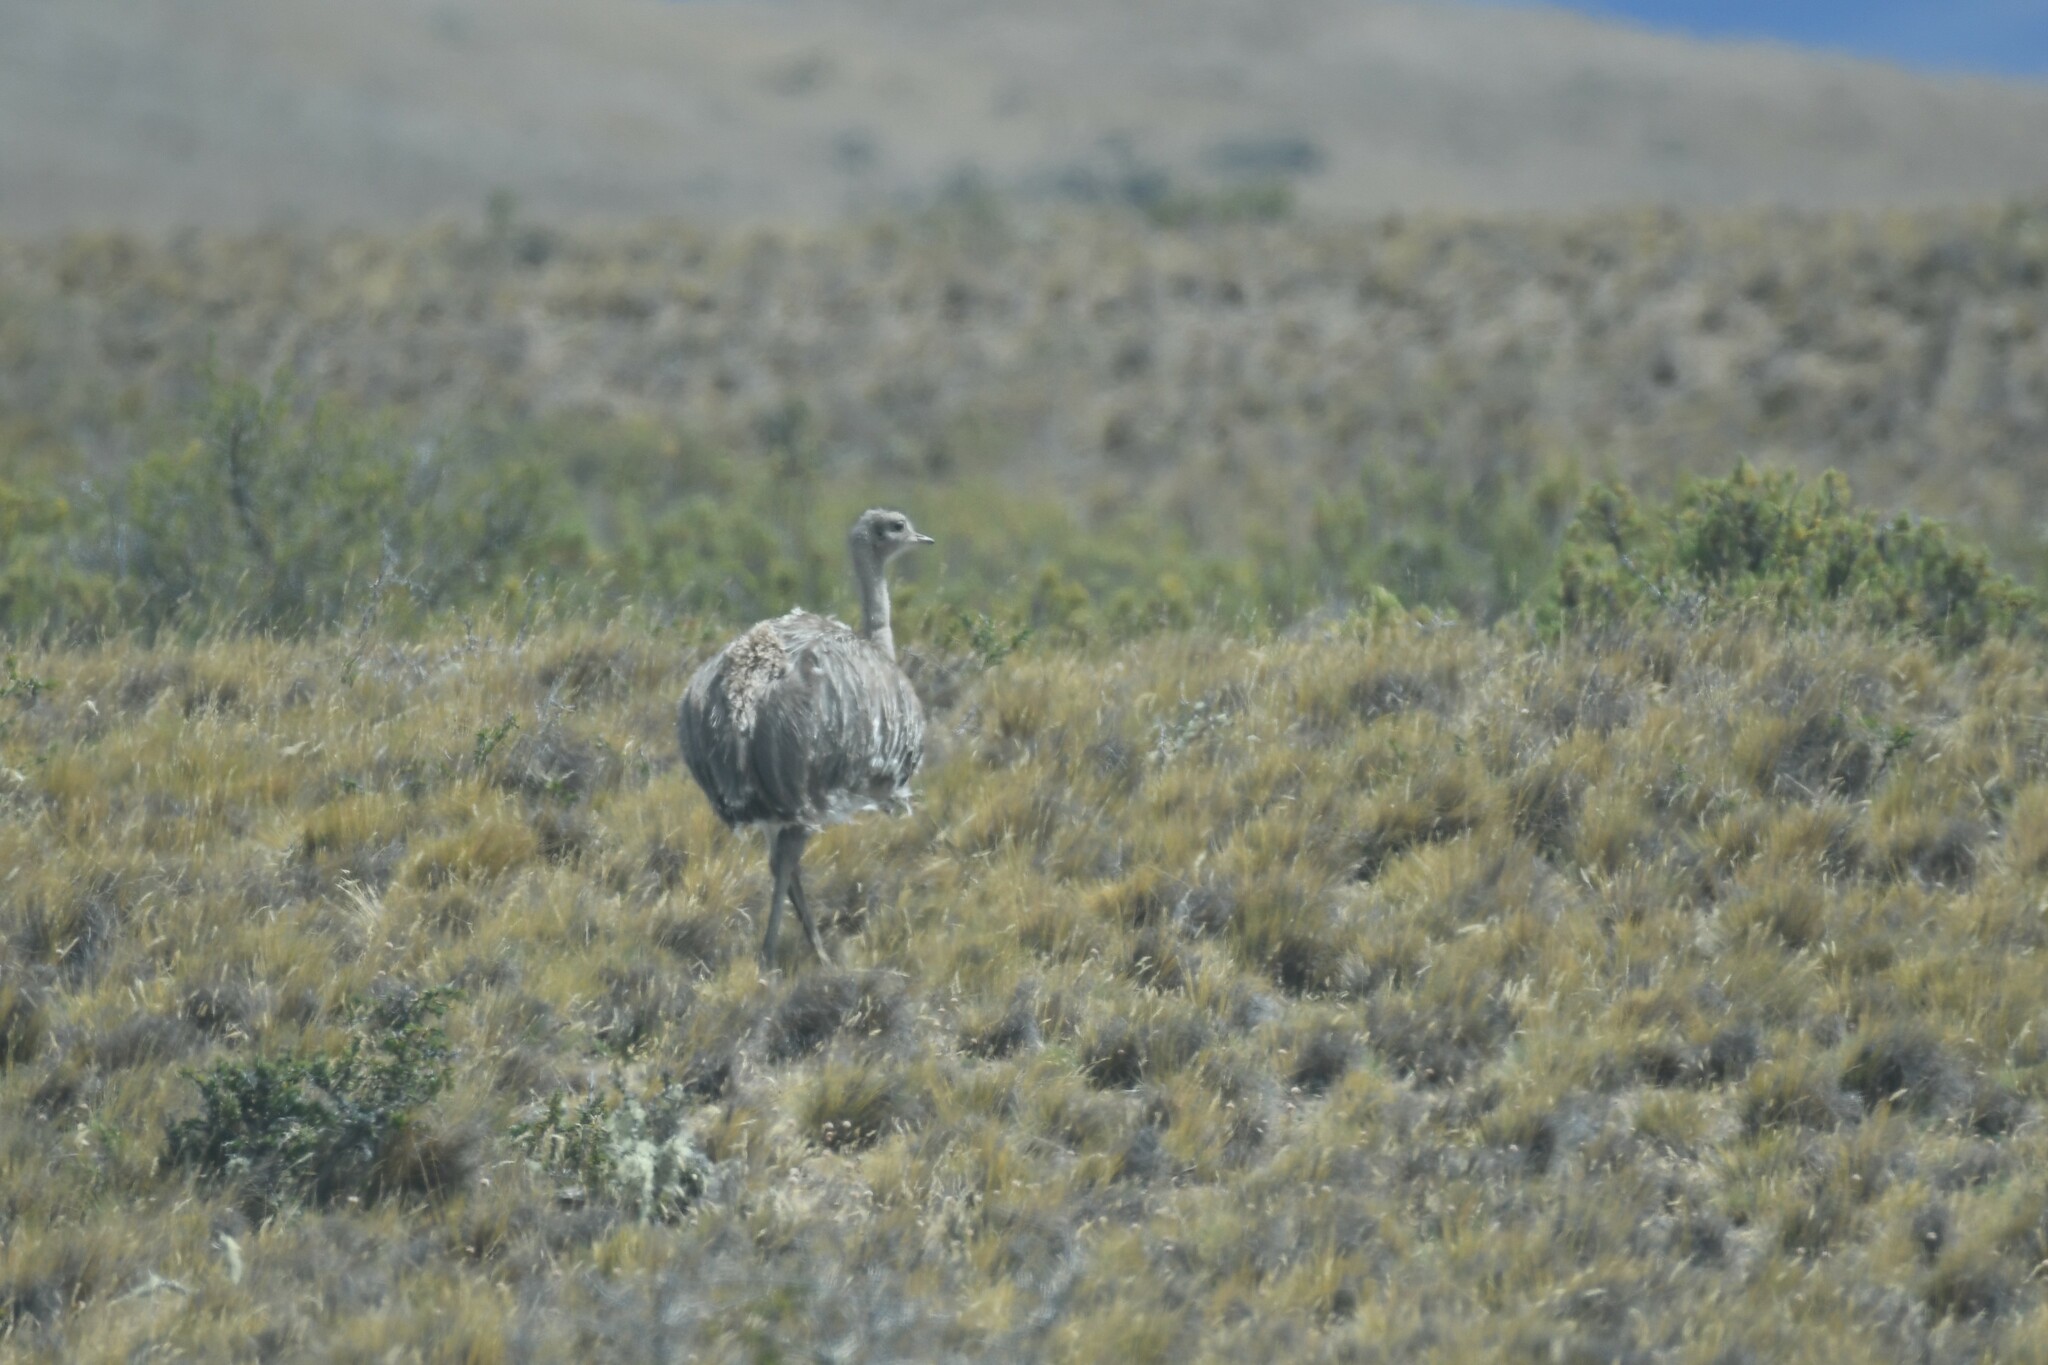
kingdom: Animalia
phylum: Chordata
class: Aves
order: Rheiformes
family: Rheidae
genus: Rhea
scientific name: Rhea pennata
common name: Lesser rhea
